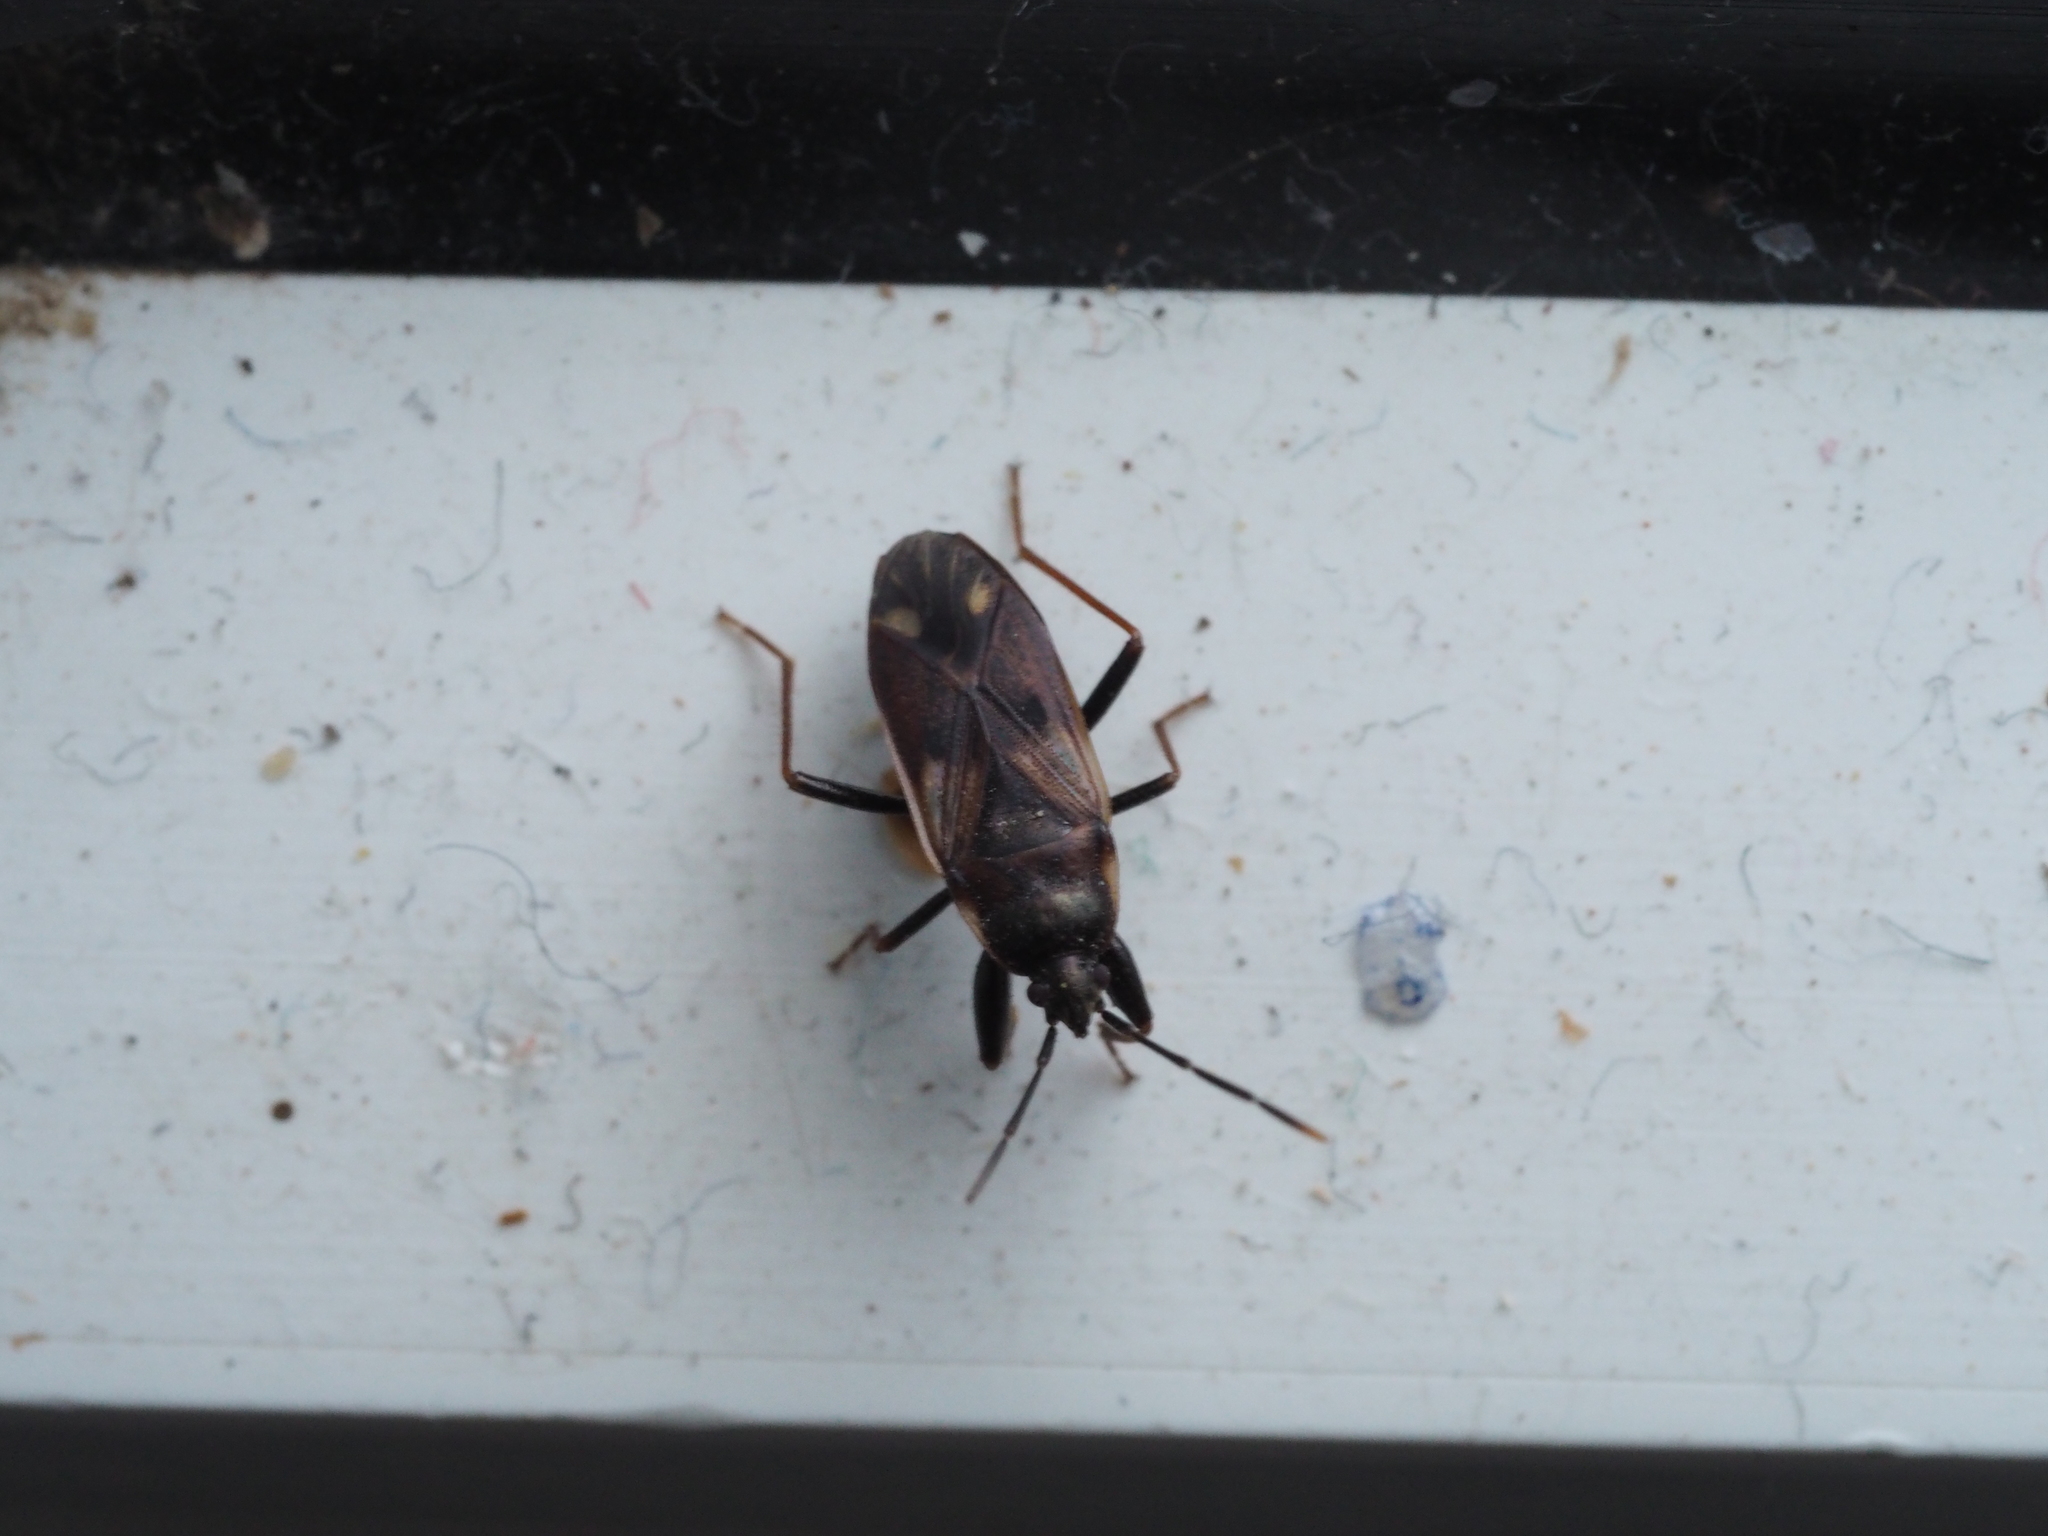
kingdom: Animalia
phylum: Arthropoda
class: Insecta
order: Hemiptera
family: Rhyparochromidae
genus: Eremocoris
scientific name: Eremocoris fenestratus
